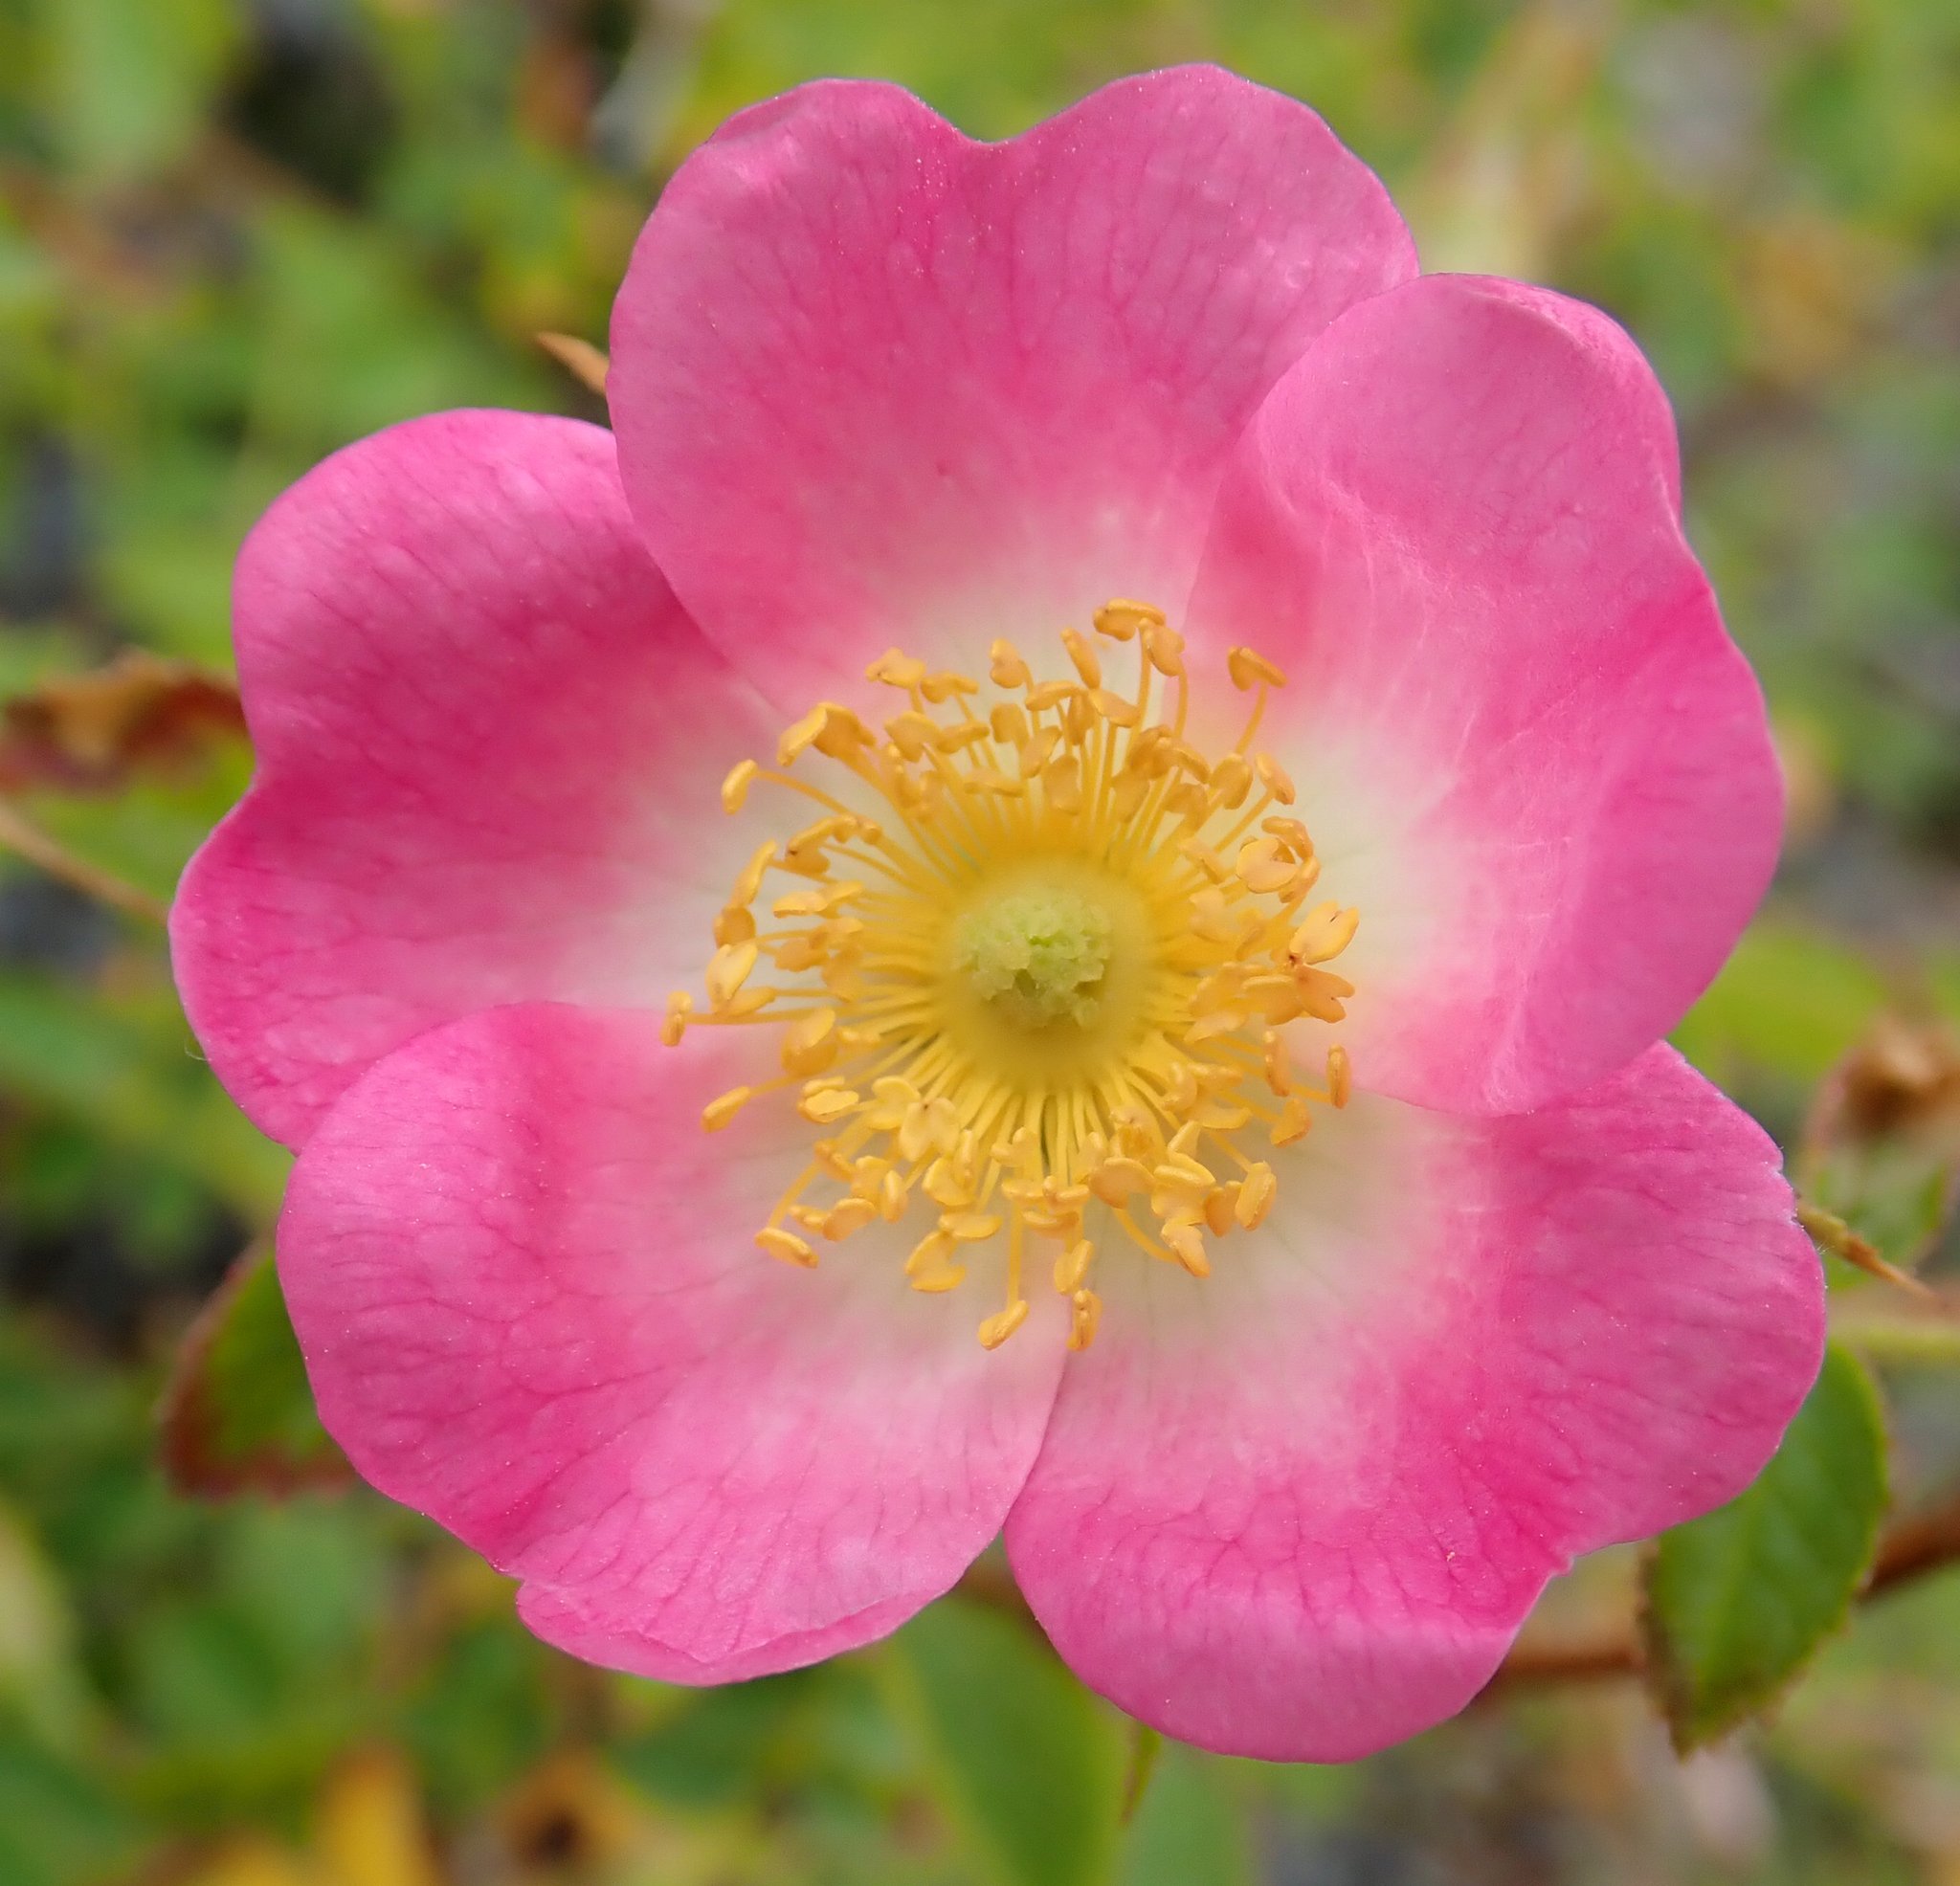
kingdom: Plantae
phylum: Tracheophyta
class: Magnoliopsida
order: Rosales
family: Rosaceae
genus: Rosa
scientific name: Rosa rubiginosa
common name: Sweet-briar
